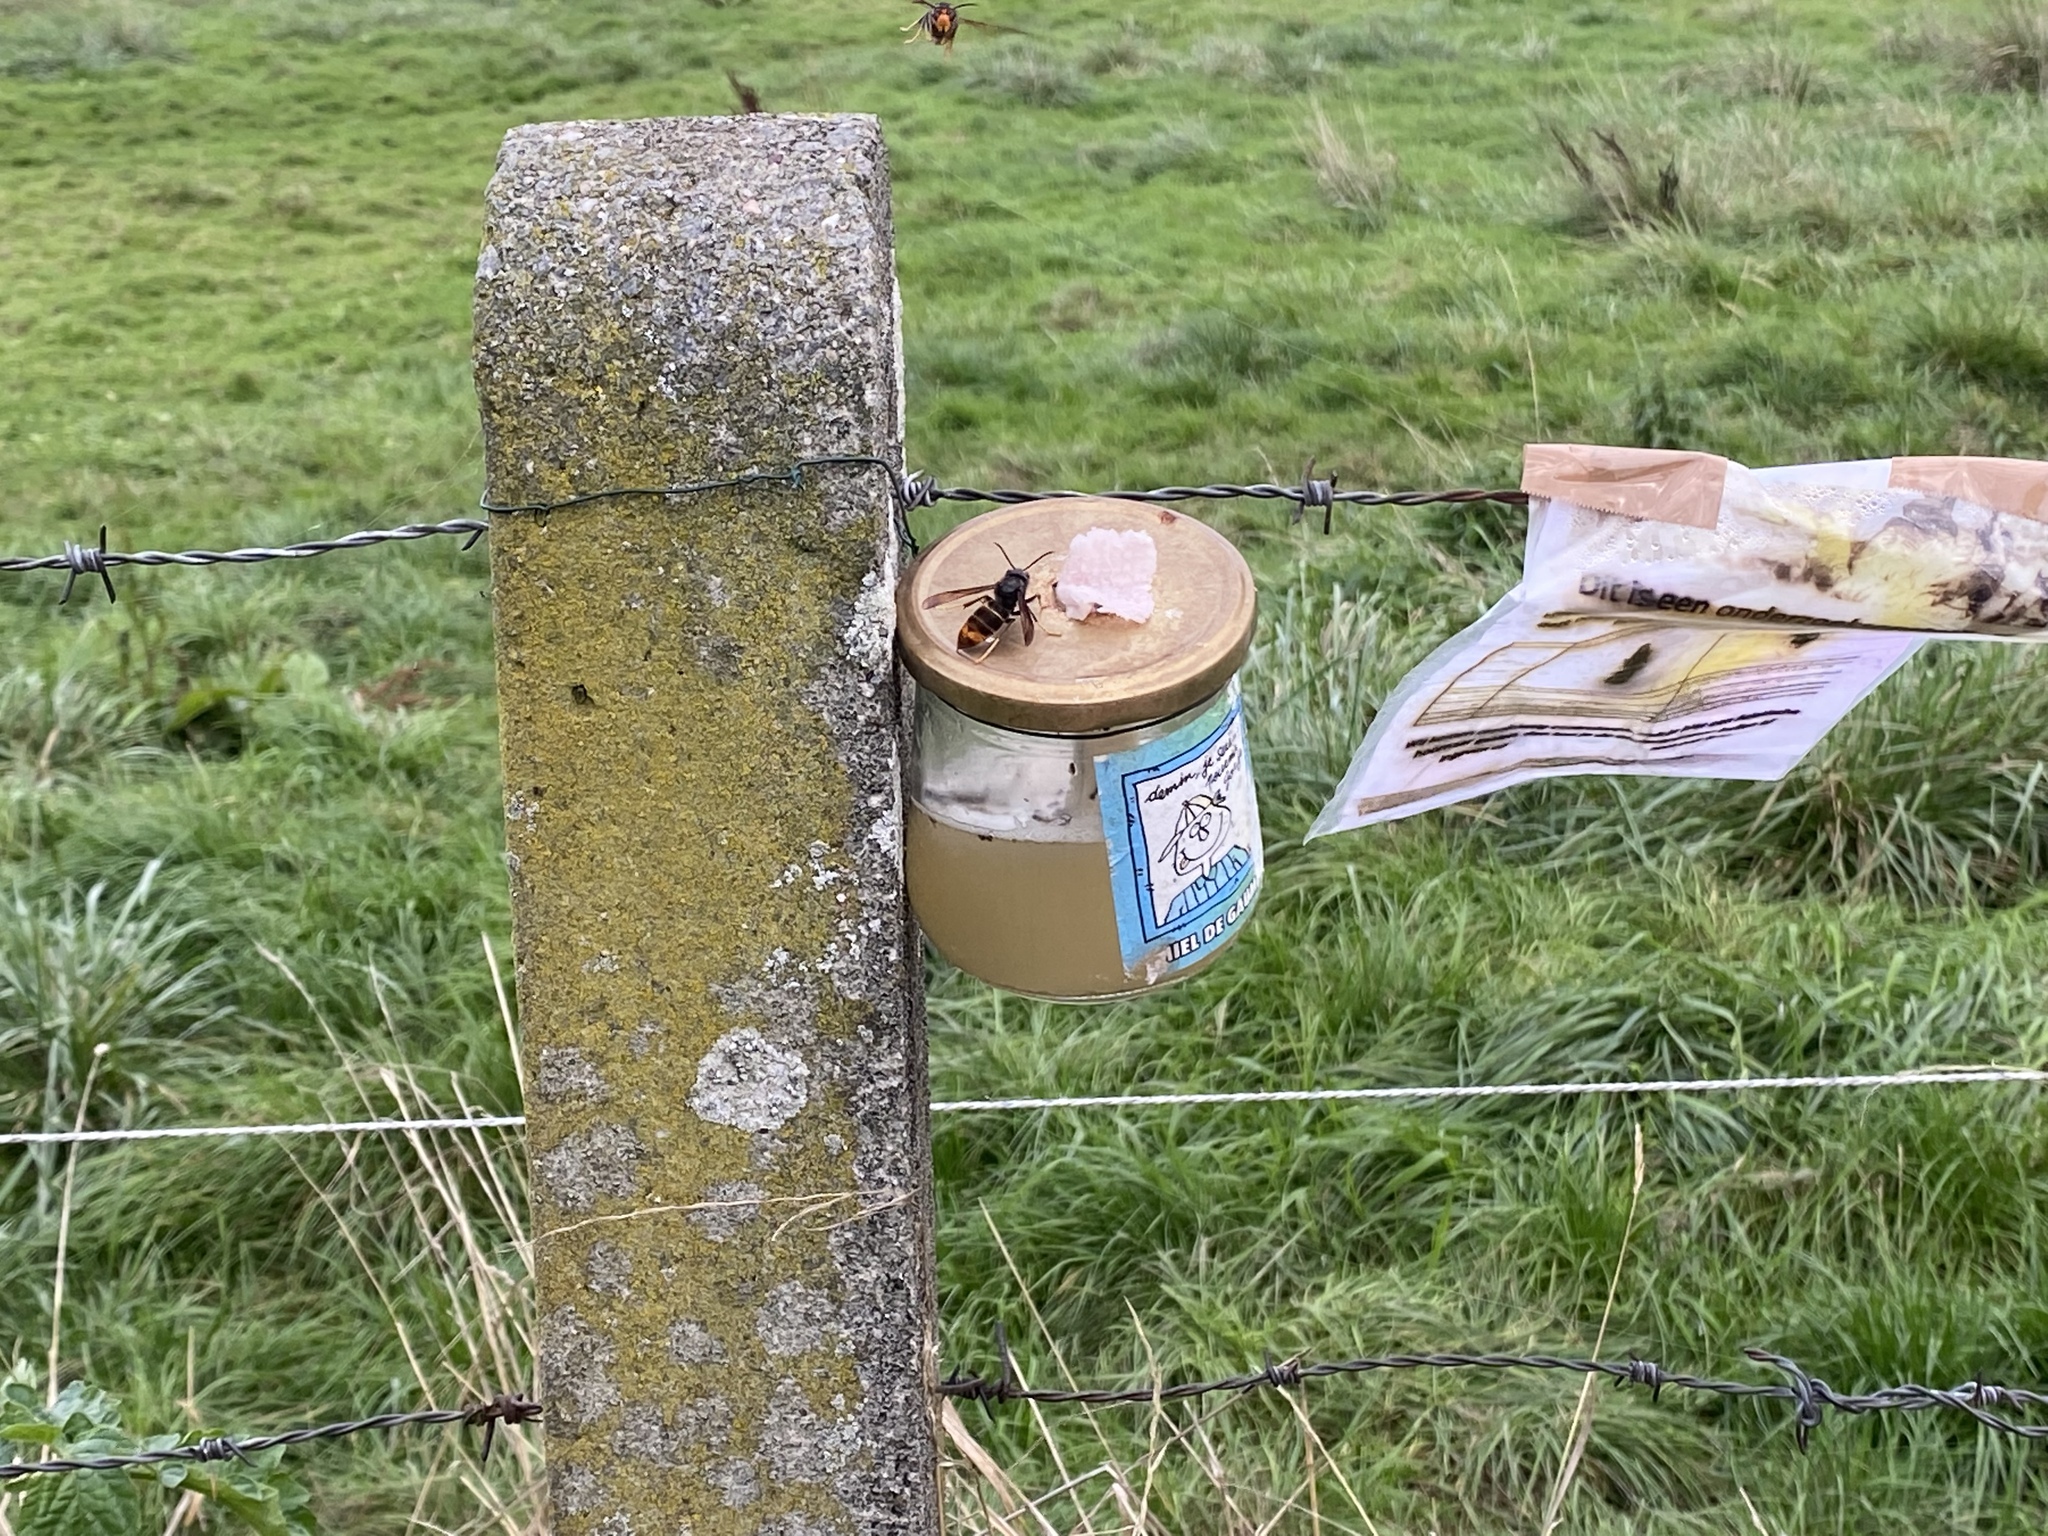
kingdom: Animalia
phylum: Arthropoda
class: Insecta
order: Hymenoptera
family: Vespidae
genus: Vespa
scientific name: Vespa velutina
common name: Asian hornet
